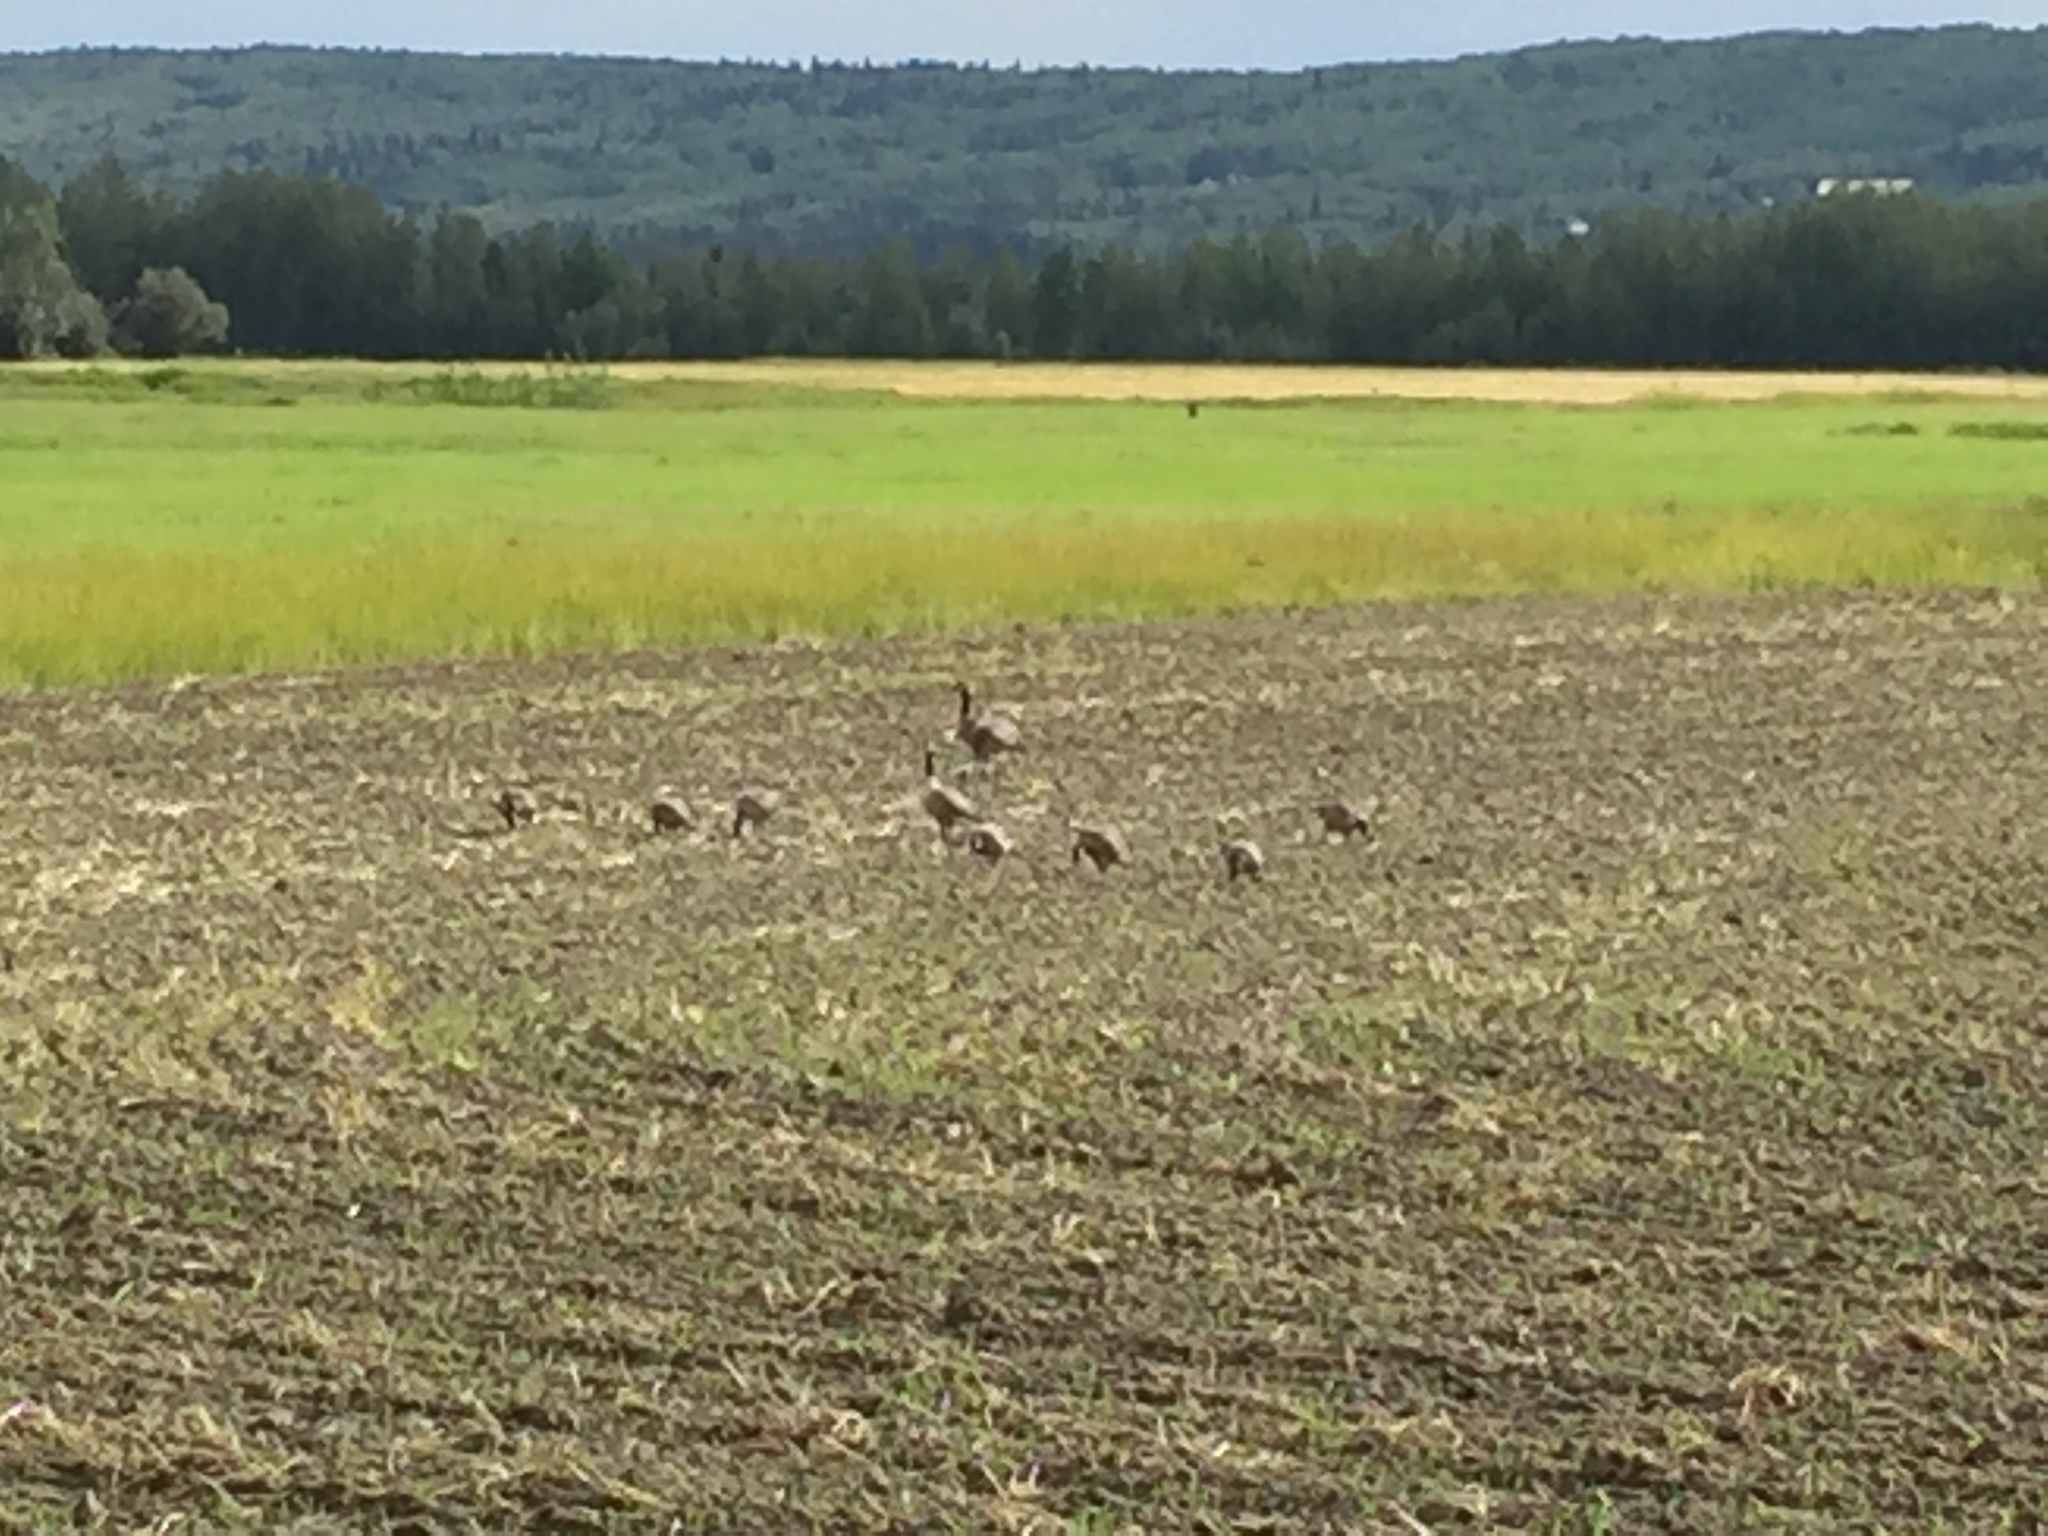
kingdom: Animalia
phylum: Chordata
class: Aves
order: Anseriformes
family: Anatidae
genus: Branta
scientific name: Branta canadensis
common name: Canada goose
